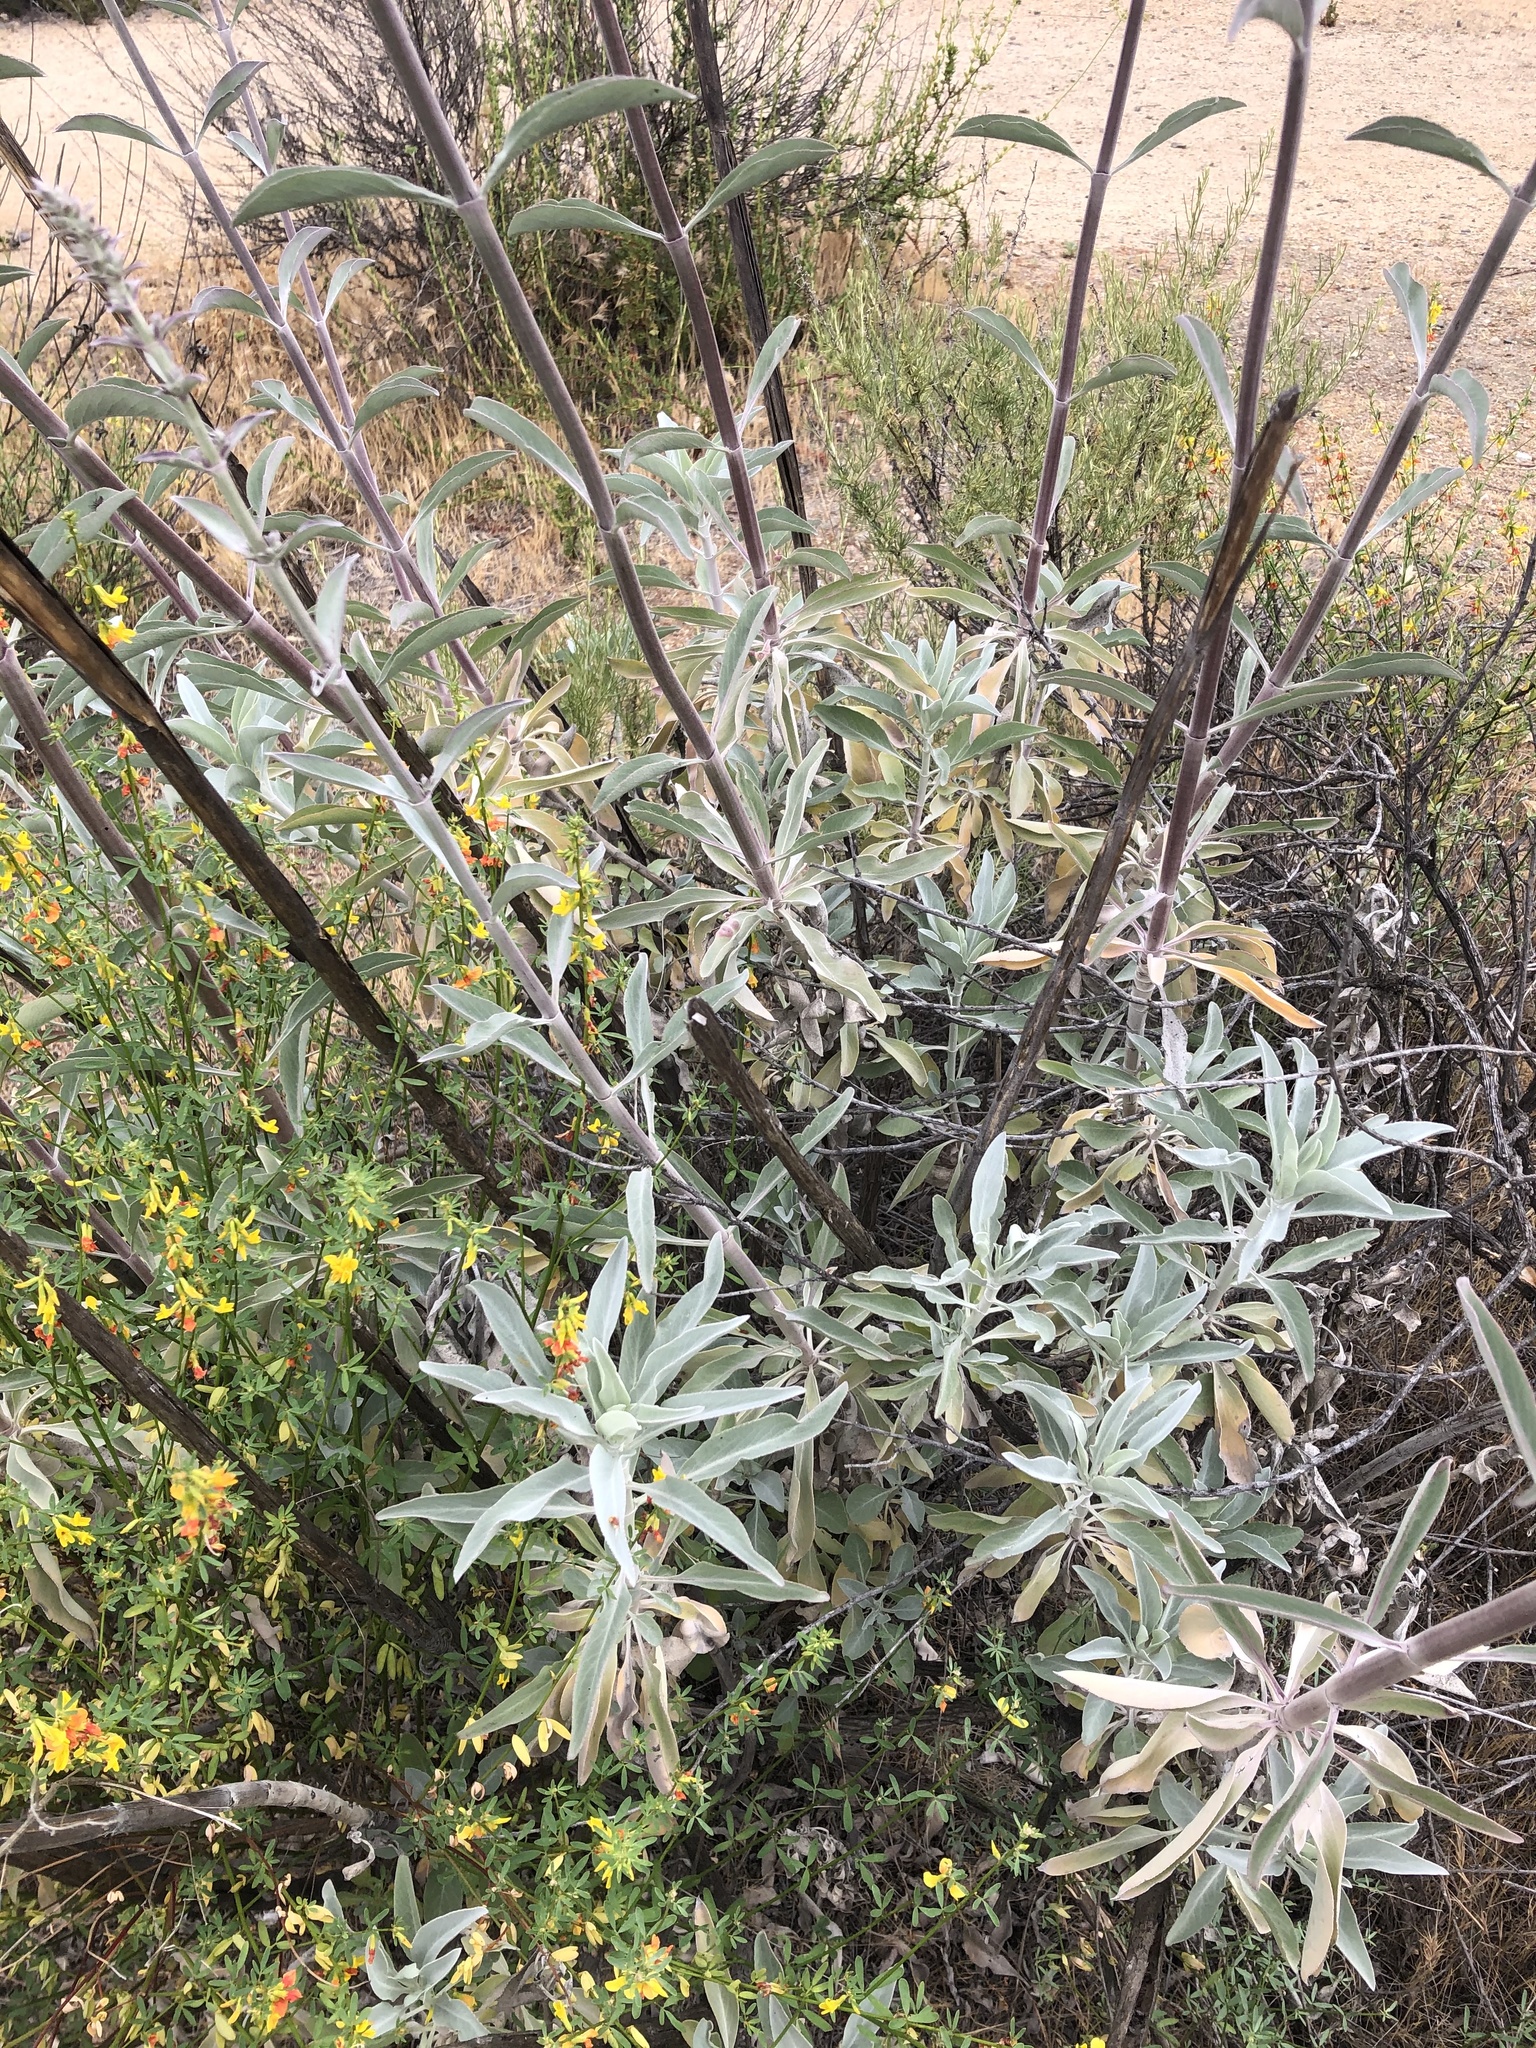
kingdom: Plantae
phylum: Tracheophyta
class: Magnoliopsida
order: Lamiales
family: Lamiaceae
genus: Salvia
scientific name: Salvia apiana
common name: White sage
